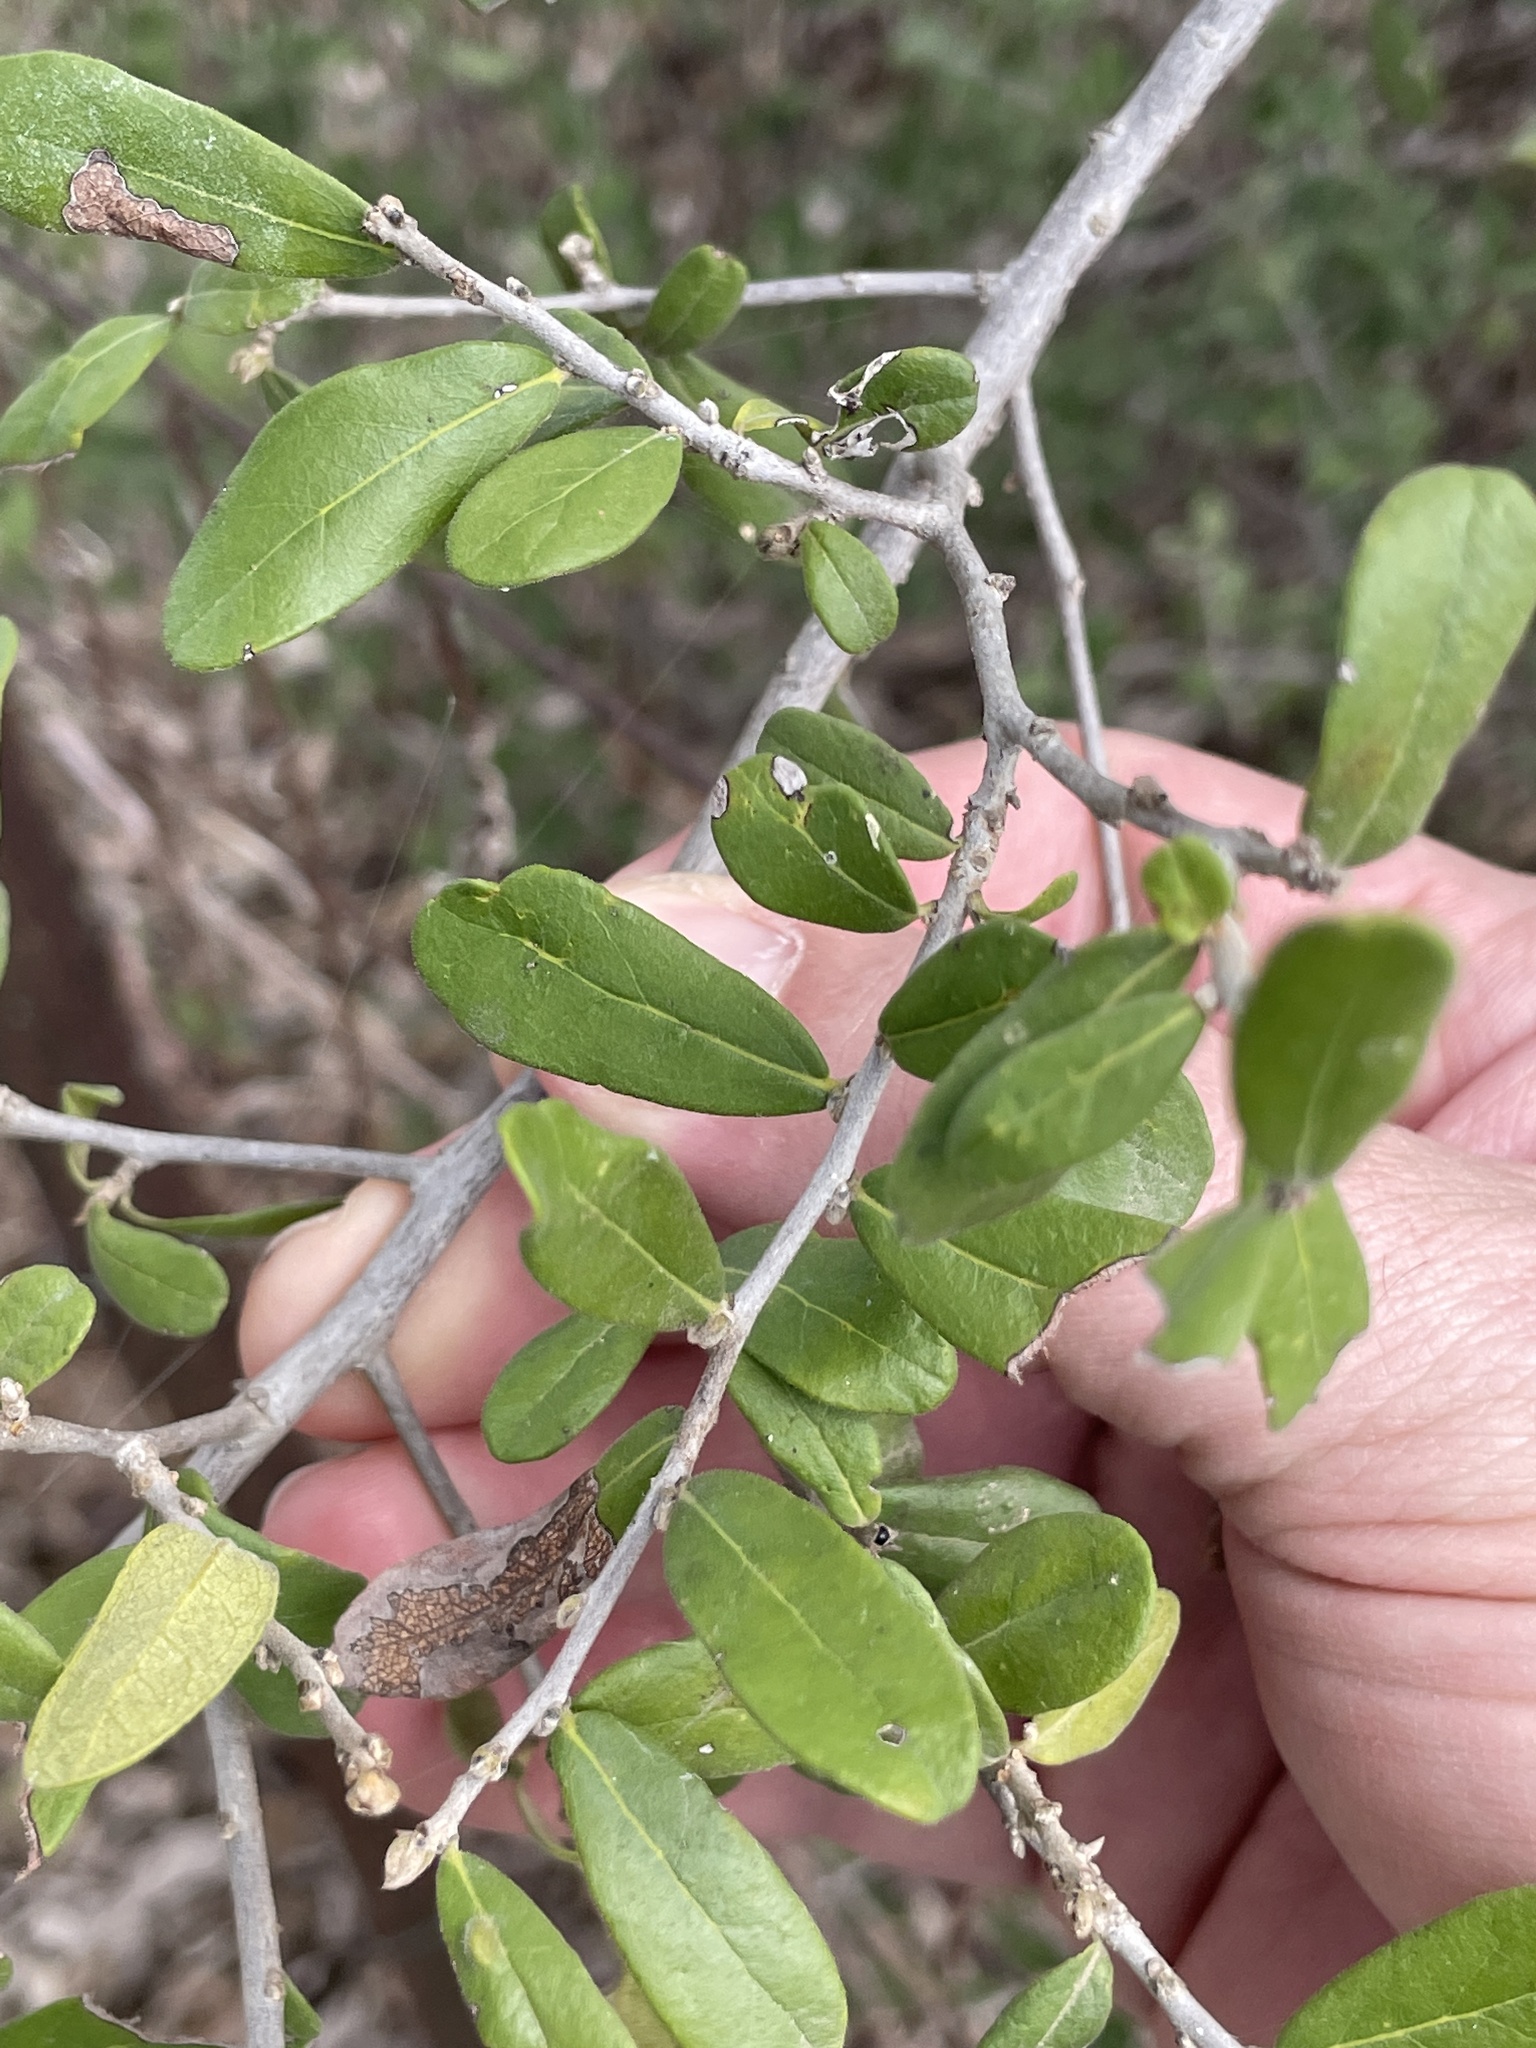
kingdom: Plantae
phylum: Tracheophyta
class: Magnoliopsida
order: Ericales
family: Ebenaceae
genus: Diospyros
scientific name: Diospyros texana
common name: Texas persimmon
